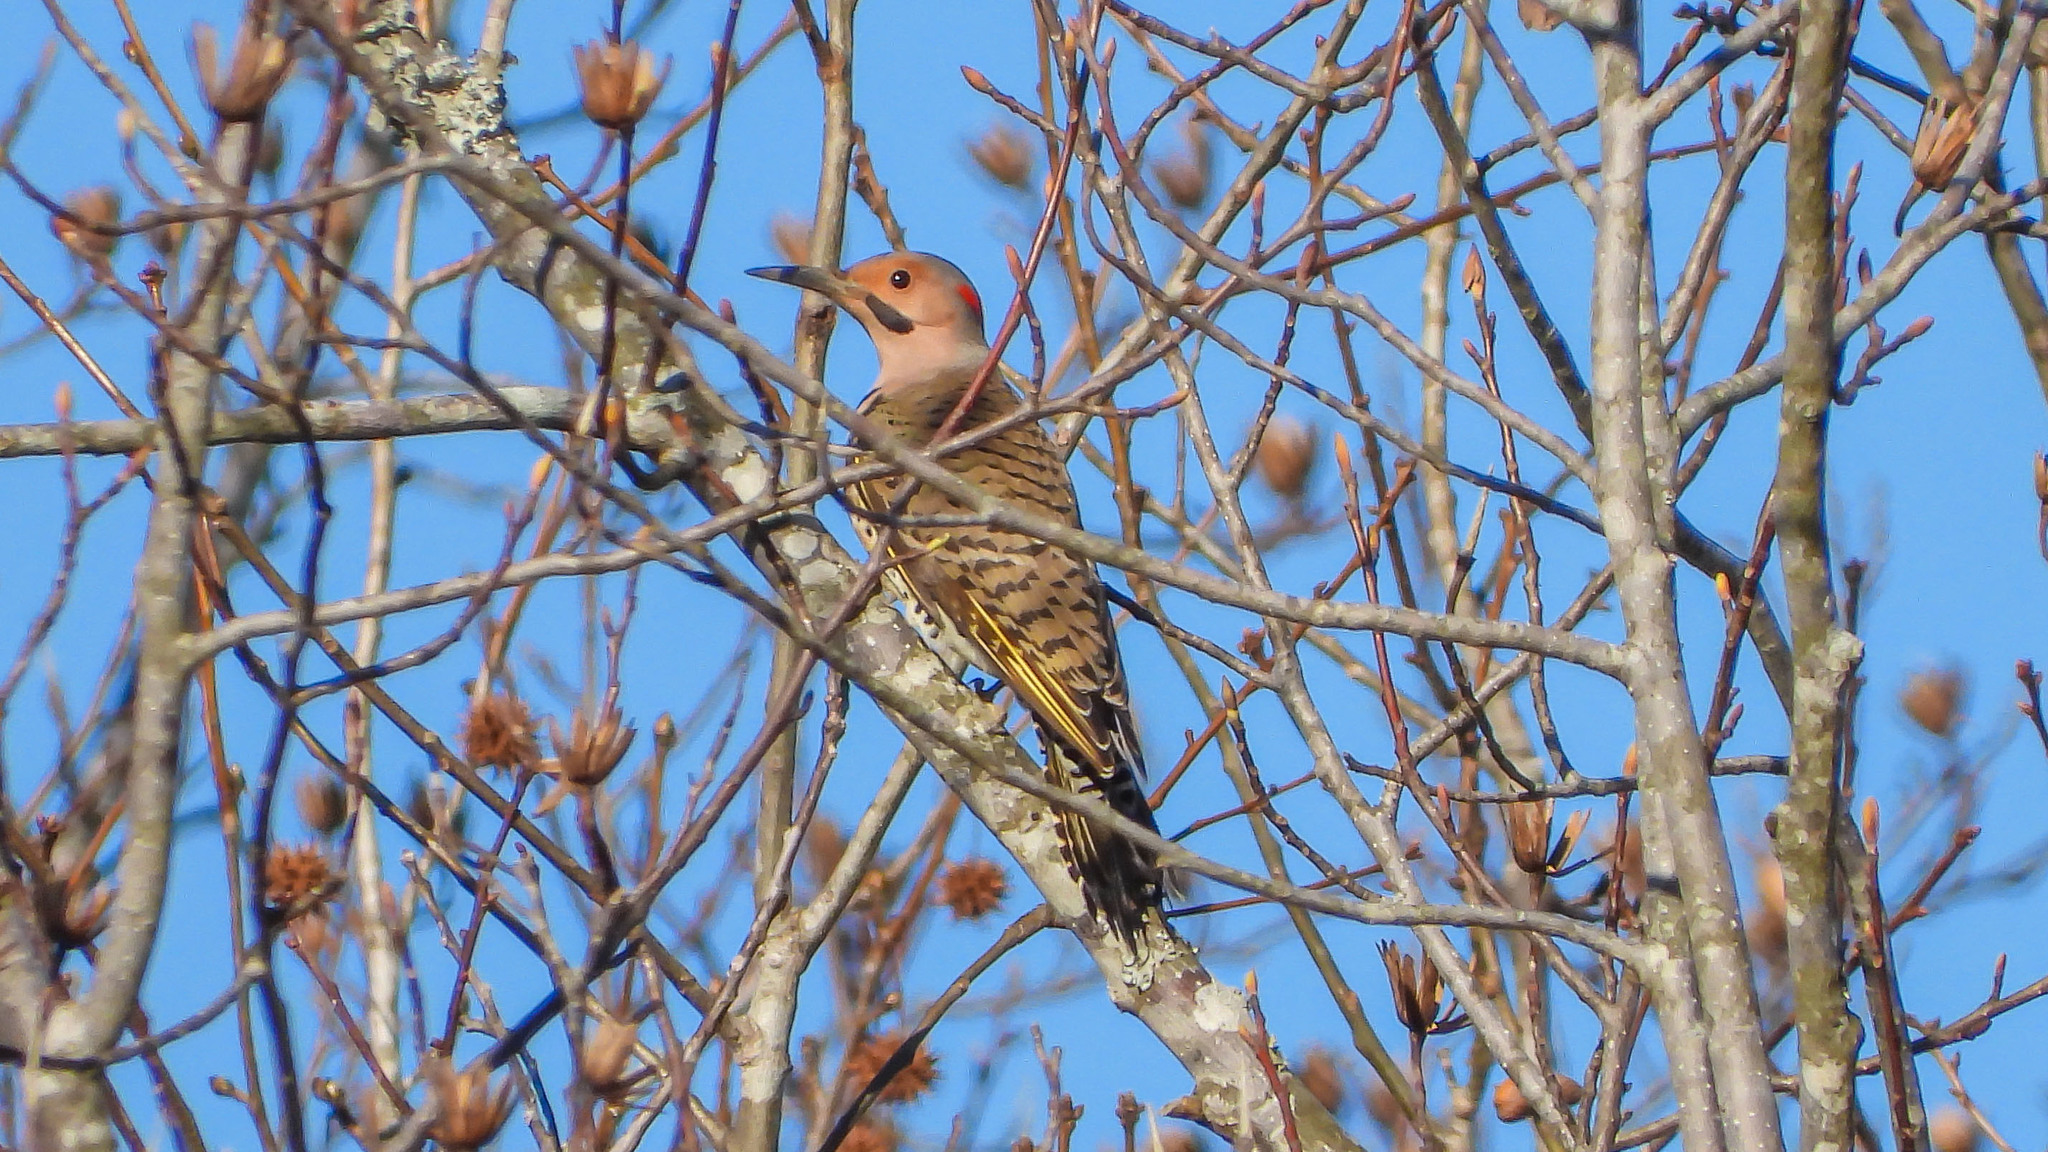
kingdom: Animalia
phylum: Chordata
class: Aves
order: Piciformes
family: Picidae
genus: Colaptes
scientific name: Colaptes auratus
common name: Northern flicker
